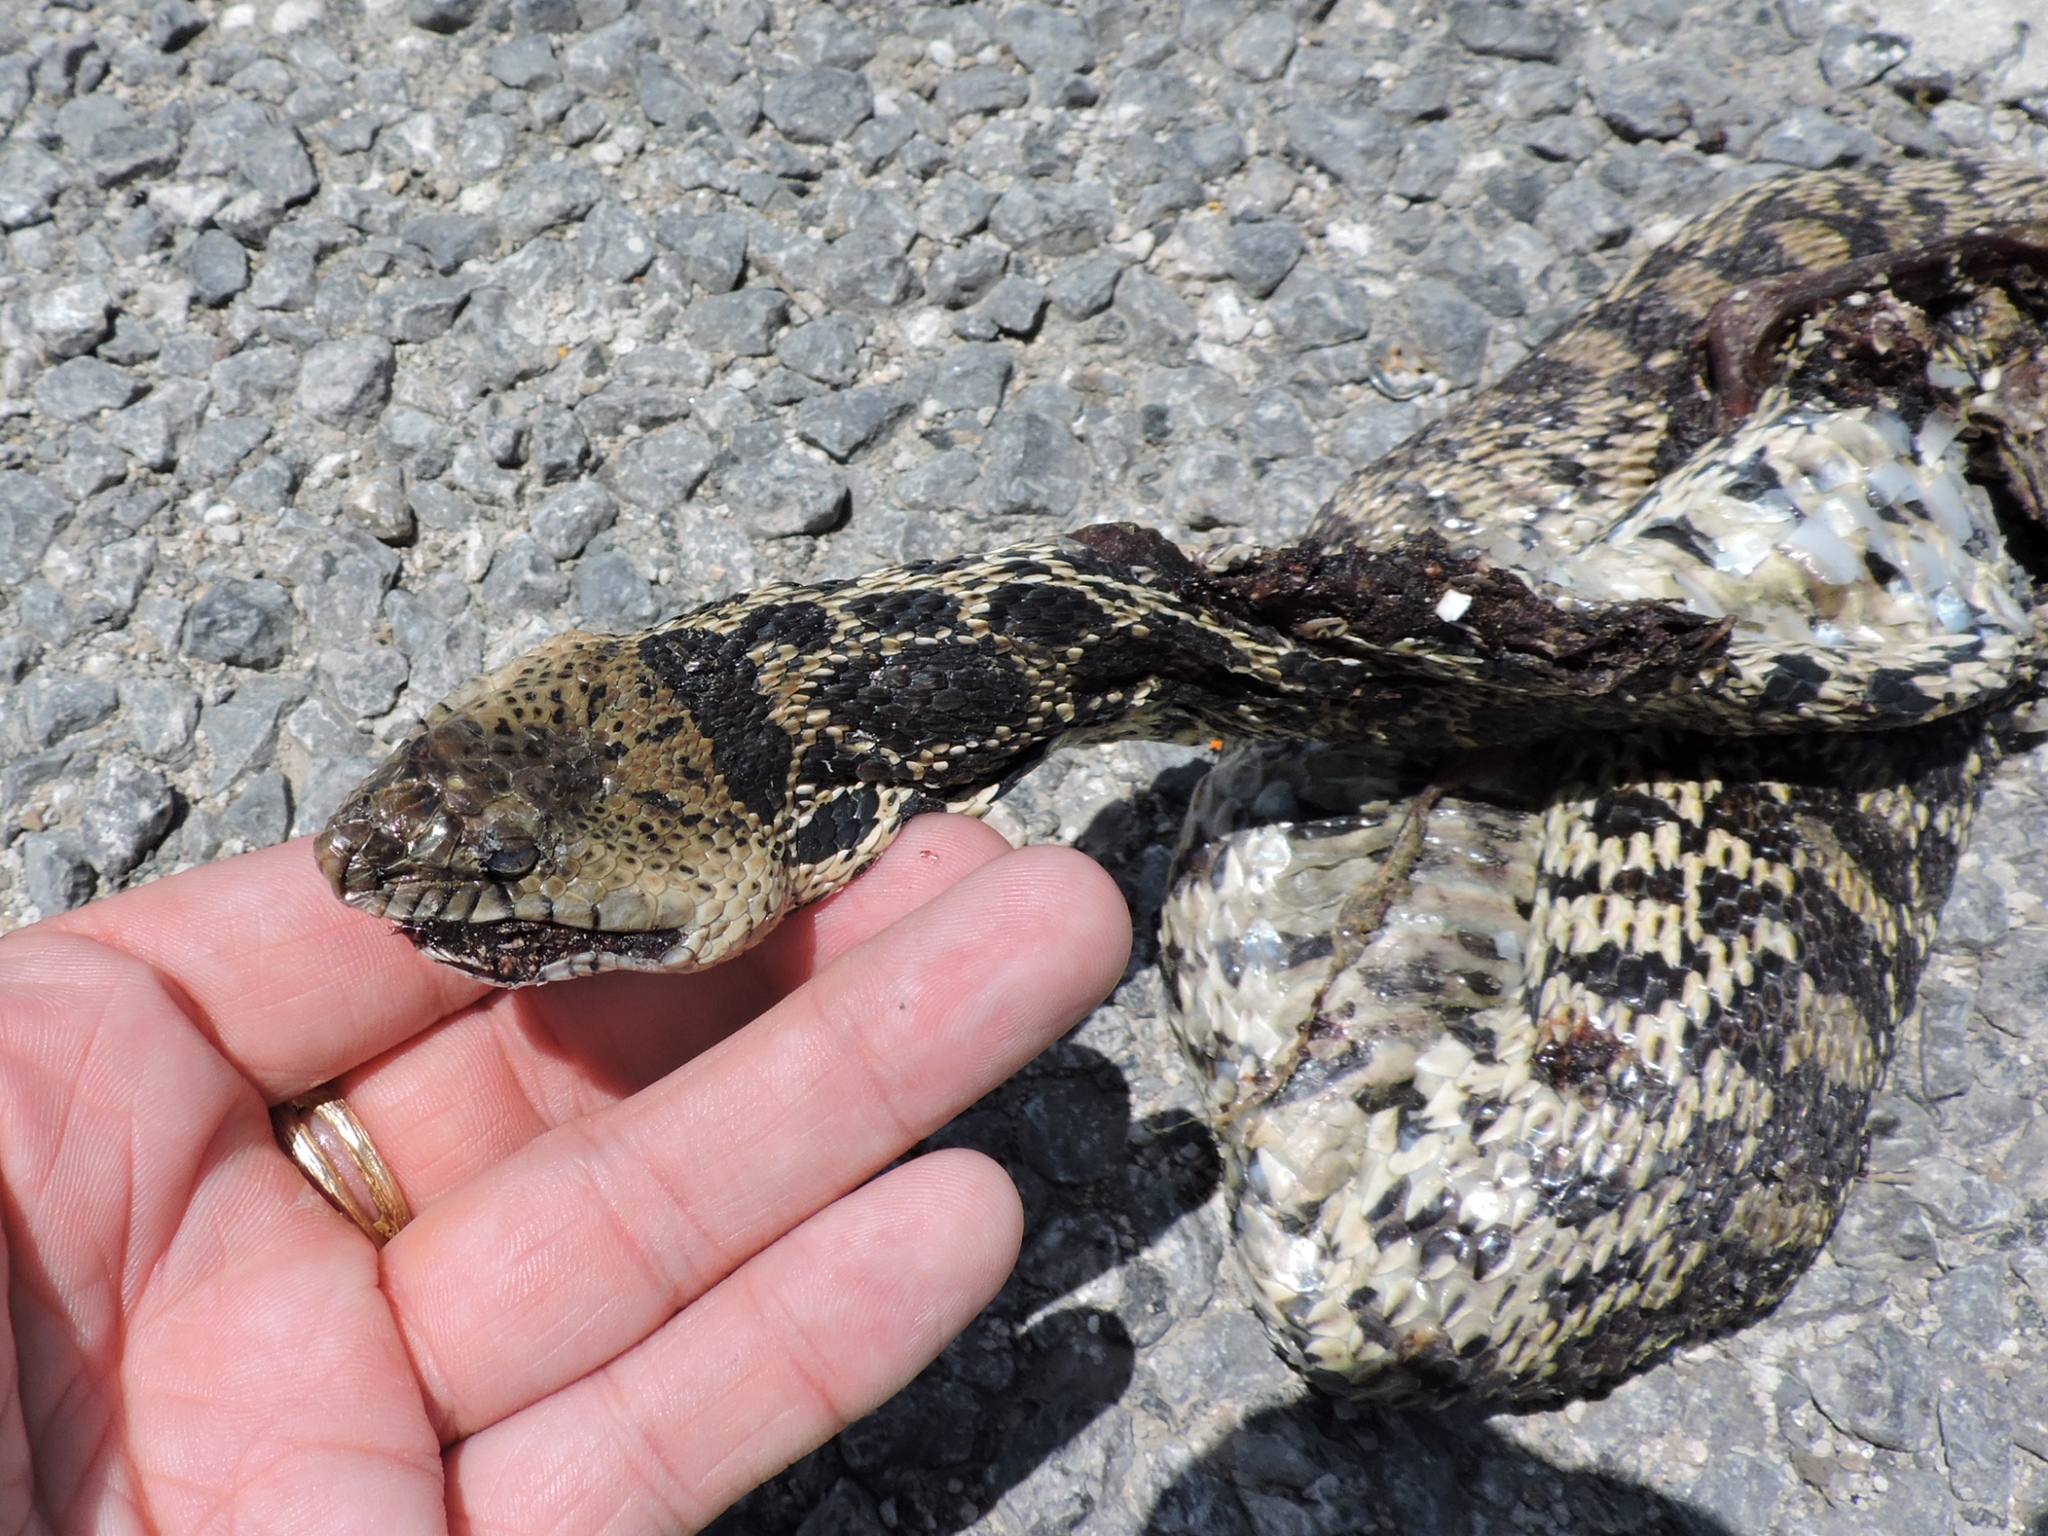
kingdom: Animalia
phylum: Chordata
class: Squamata
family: Colubridae
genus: Pituophis
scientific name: Pituophis catenifer
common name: Gopher snake
